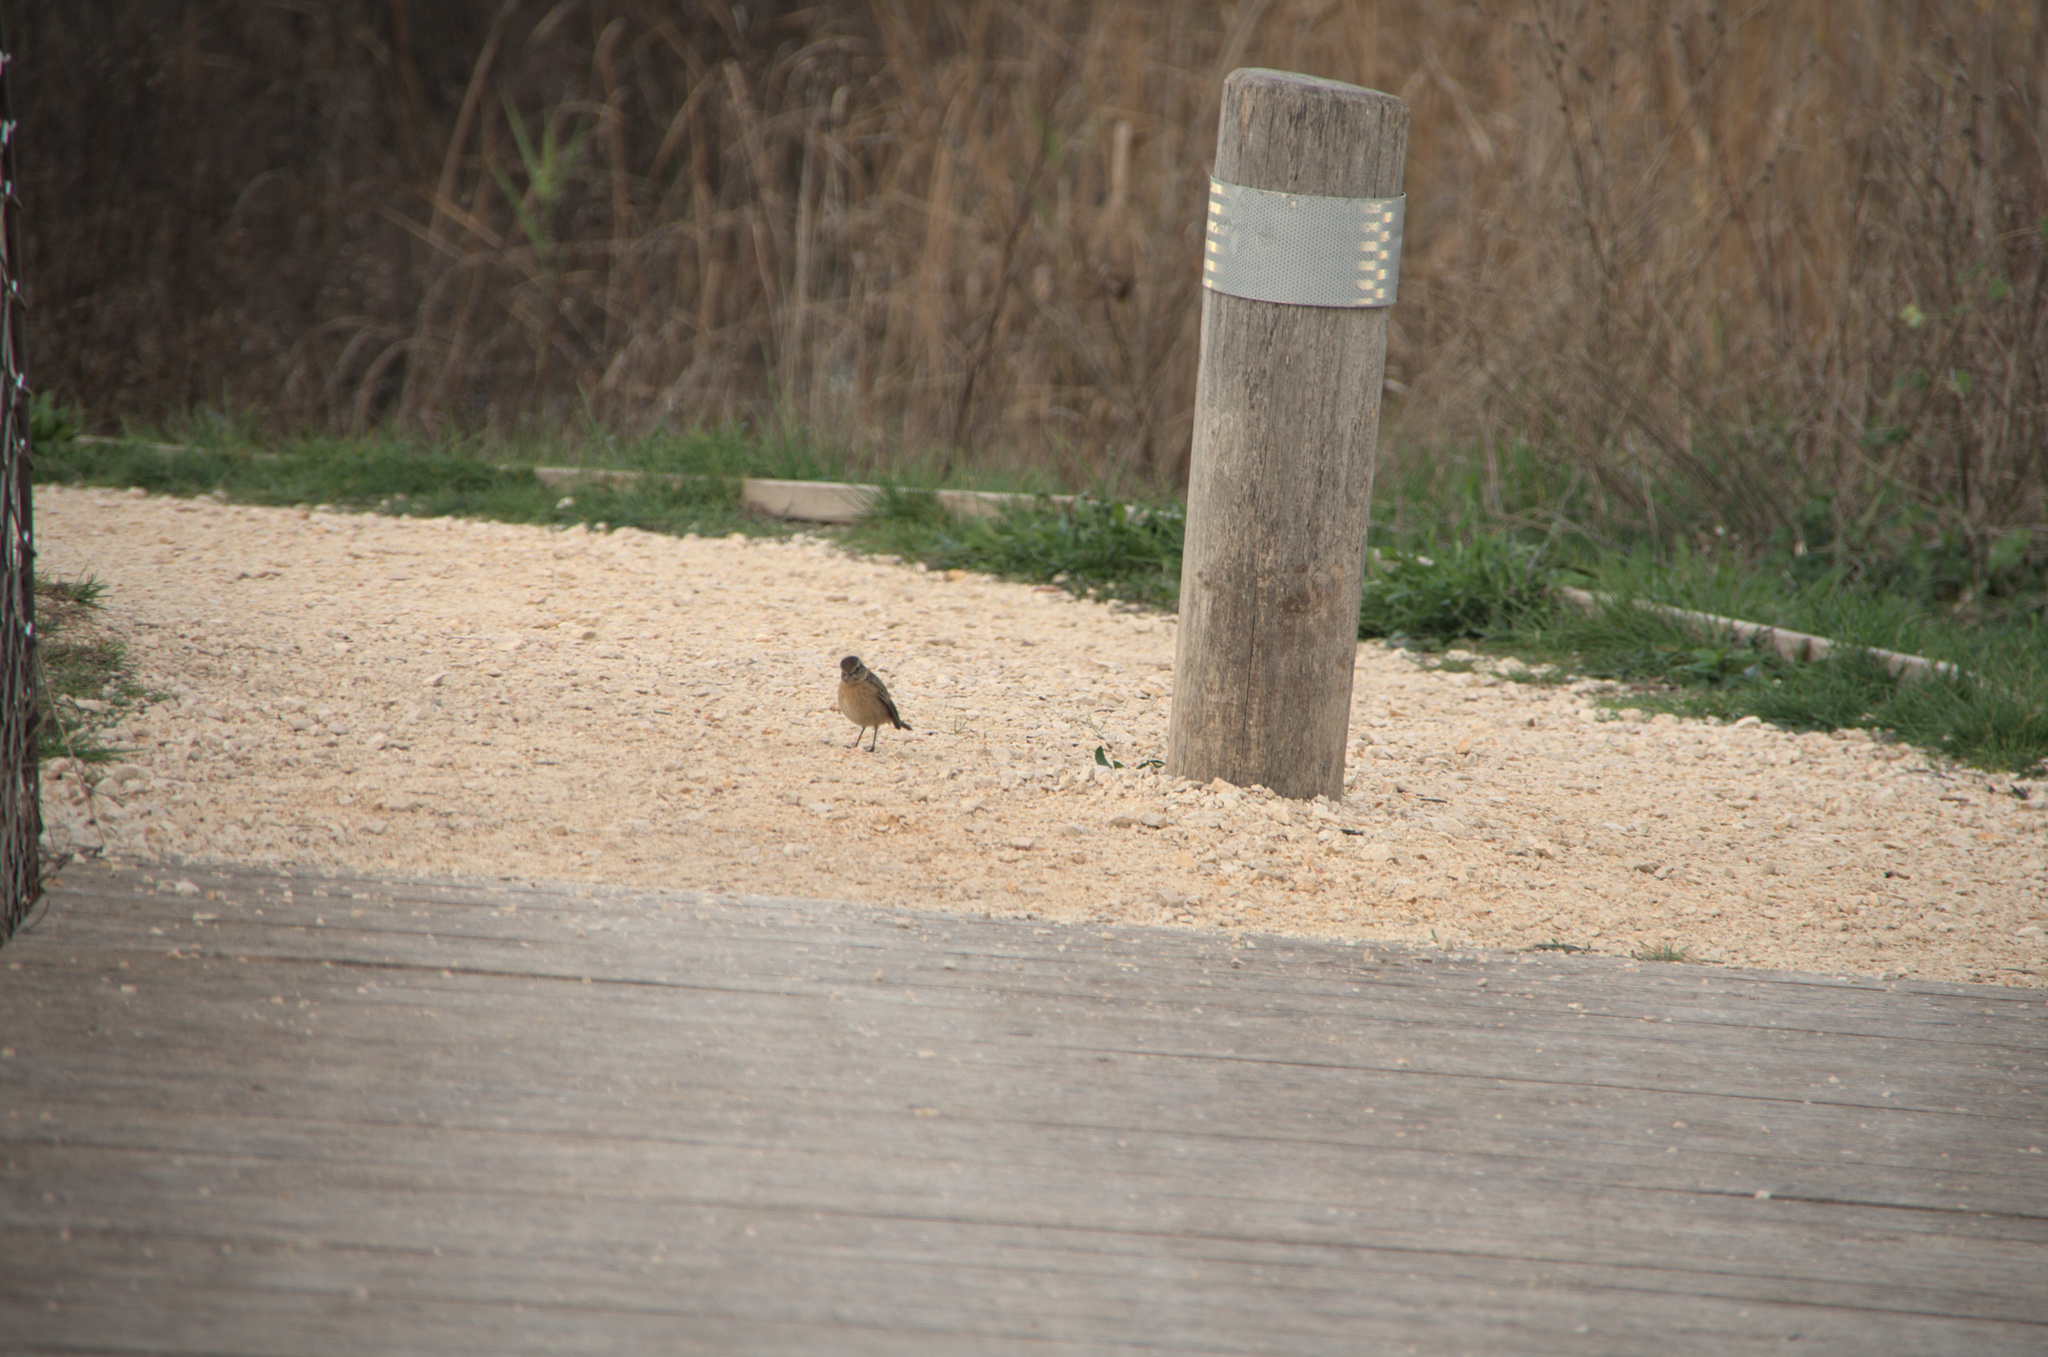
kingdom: Animalia
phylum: Chordata
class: Aves
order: Passeriformes
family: Muscicapidae
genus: Saxicola
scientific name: Saxicola rubicola
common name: European stonechat
